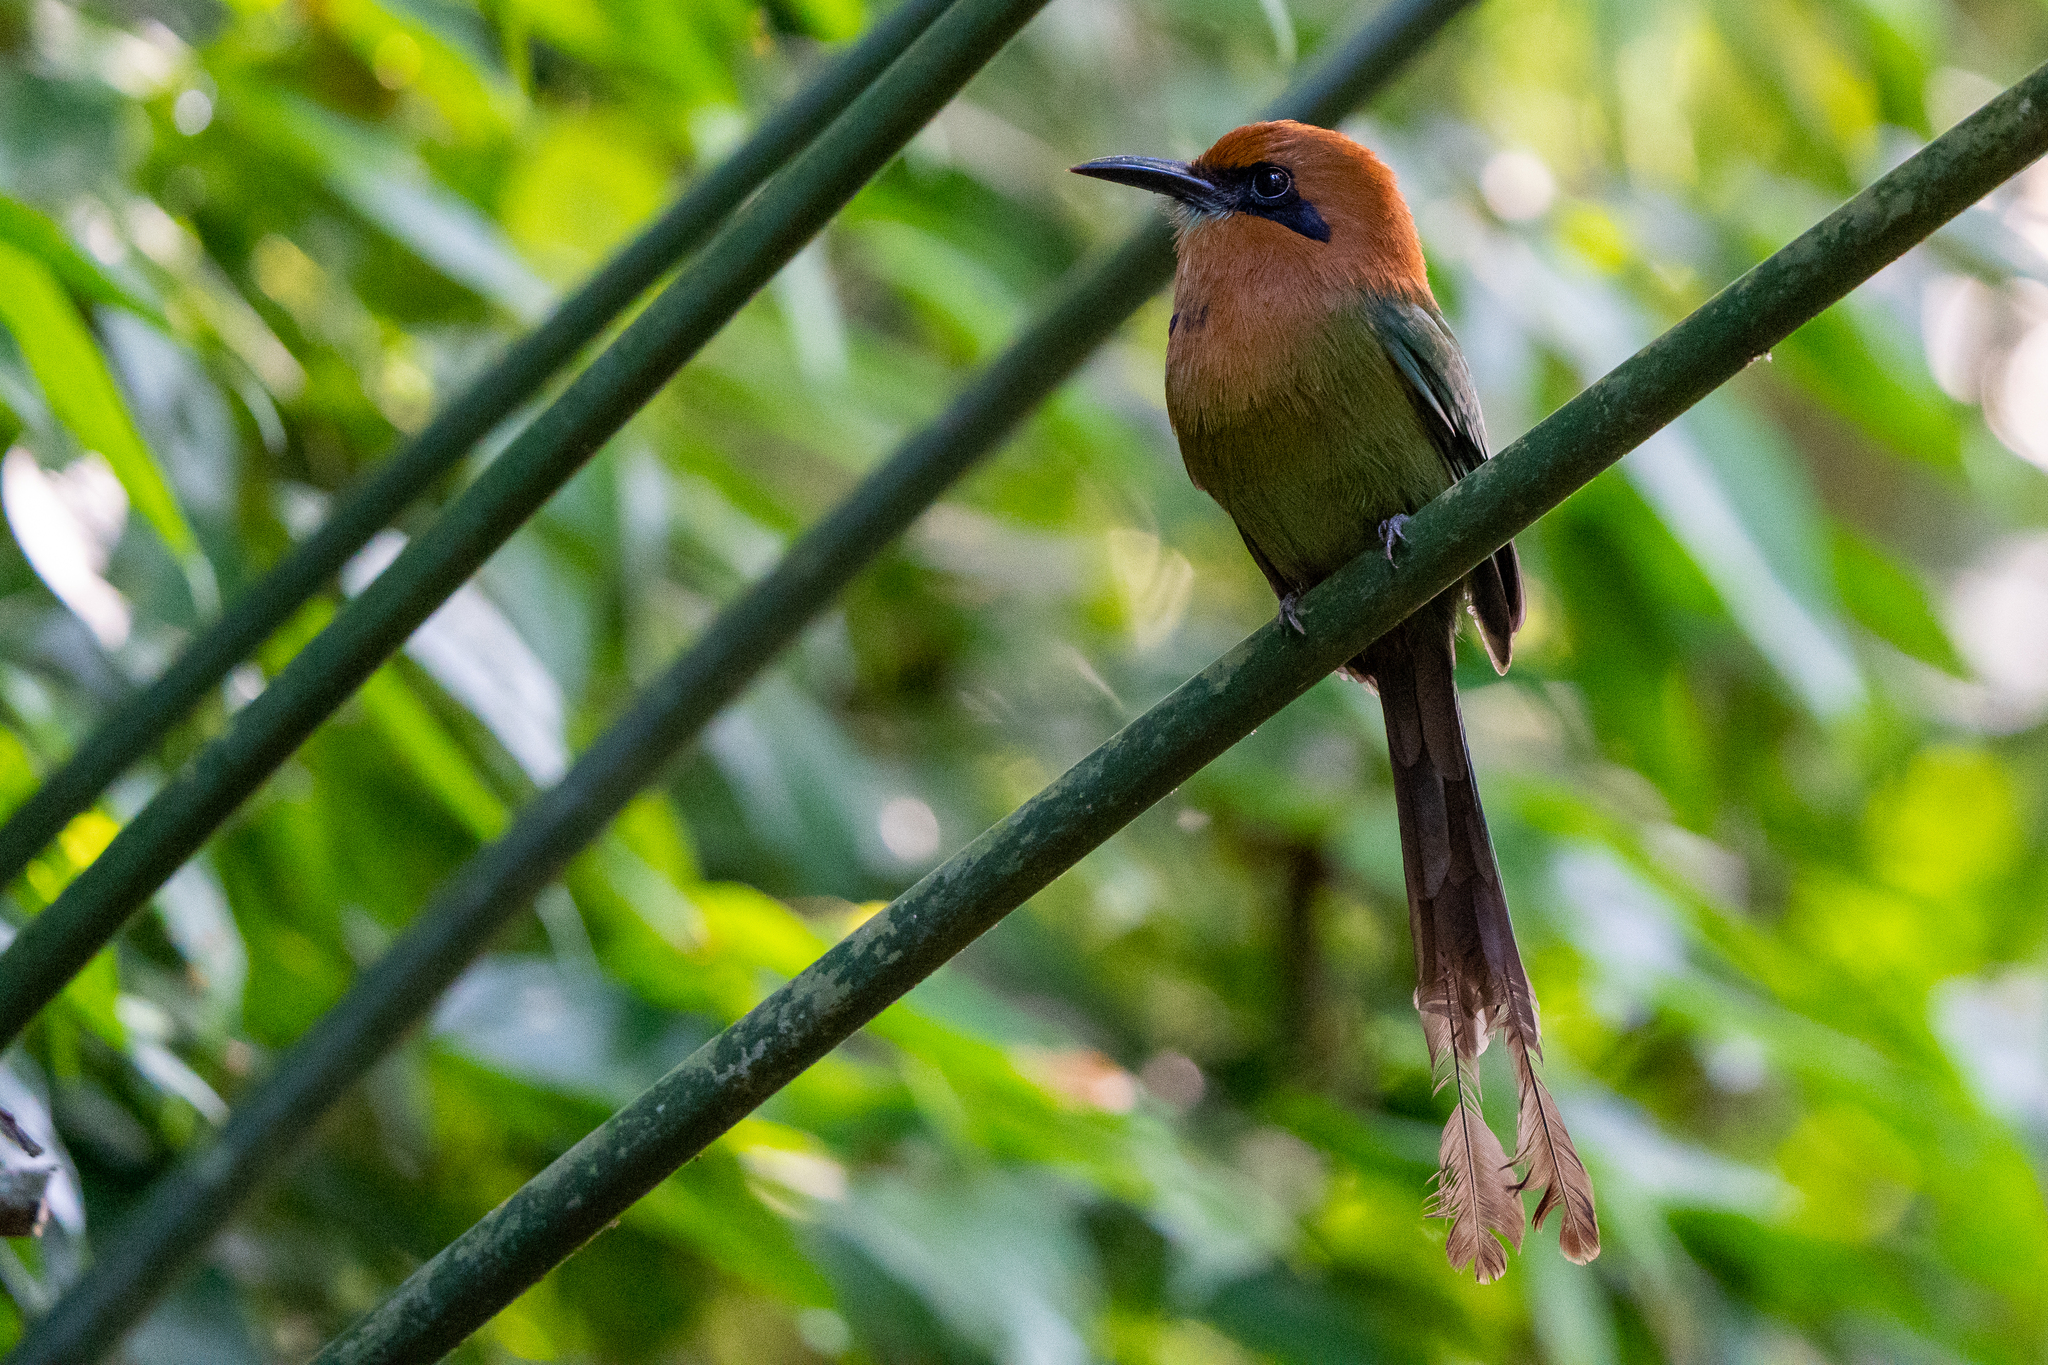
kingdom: Animalia
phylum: Chordata
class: Aves
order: Coraciiformes
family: Momotidae
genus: Electron
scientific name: Electron platyrhynchum
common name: Broad-billed motmot
